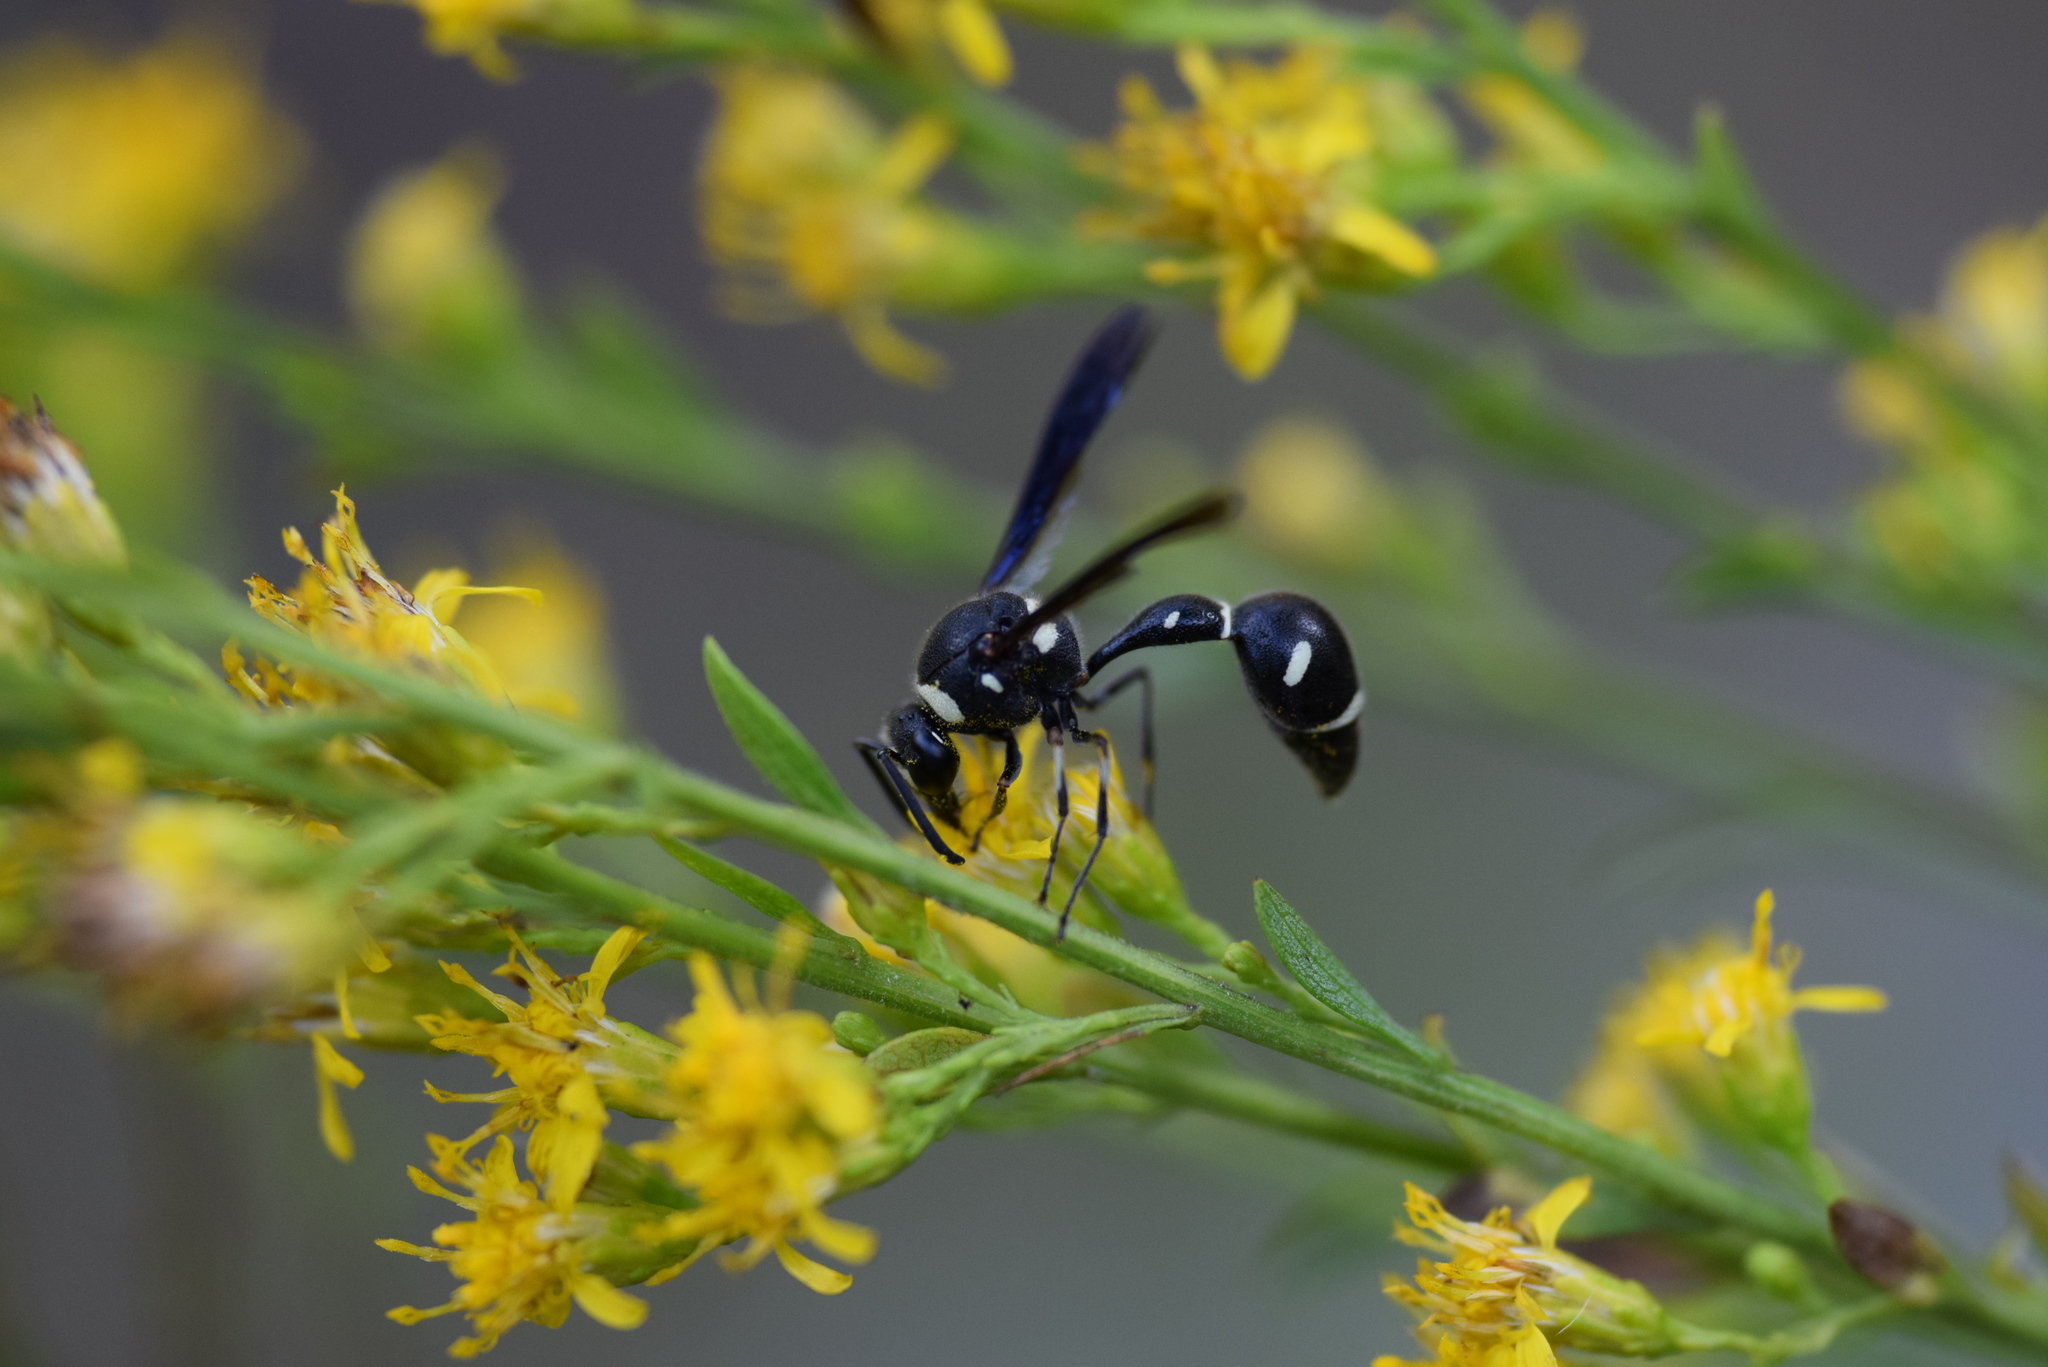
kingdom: Animalia
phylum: Arthropoda
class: Insecta
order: Hymenoptera
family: Vespidae
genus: Eumenes
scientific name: Eumenes fraternus
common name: Fraternal potter wasp
